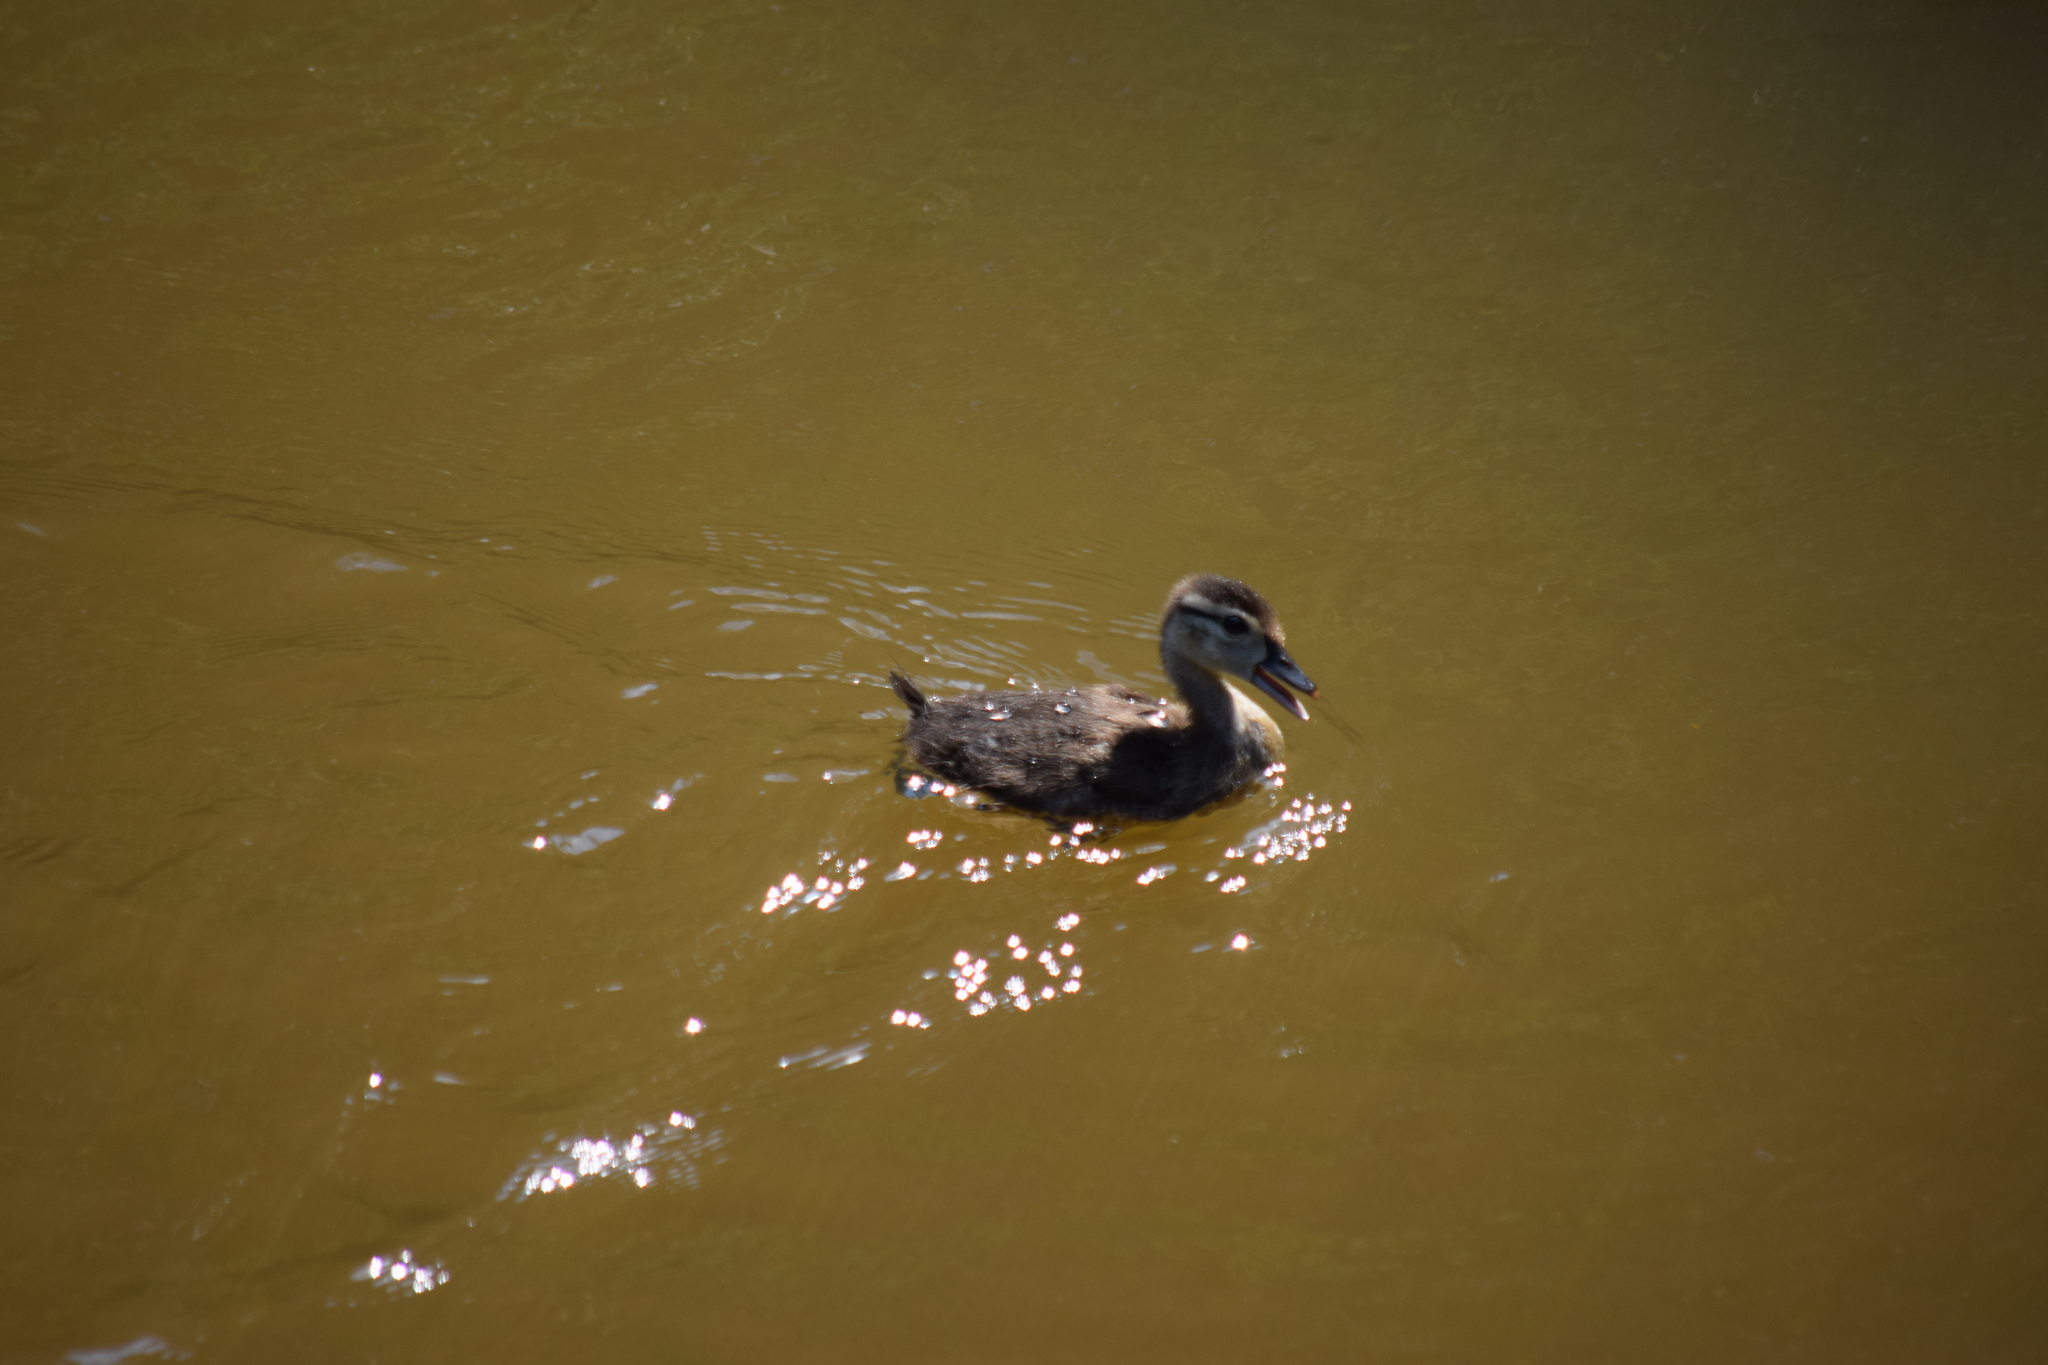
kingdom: Animalia
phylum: Chordata
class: Aves
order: Anseriformes
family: Anatidae
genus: Aix
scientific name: Aix sponsa
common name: Wood duck
